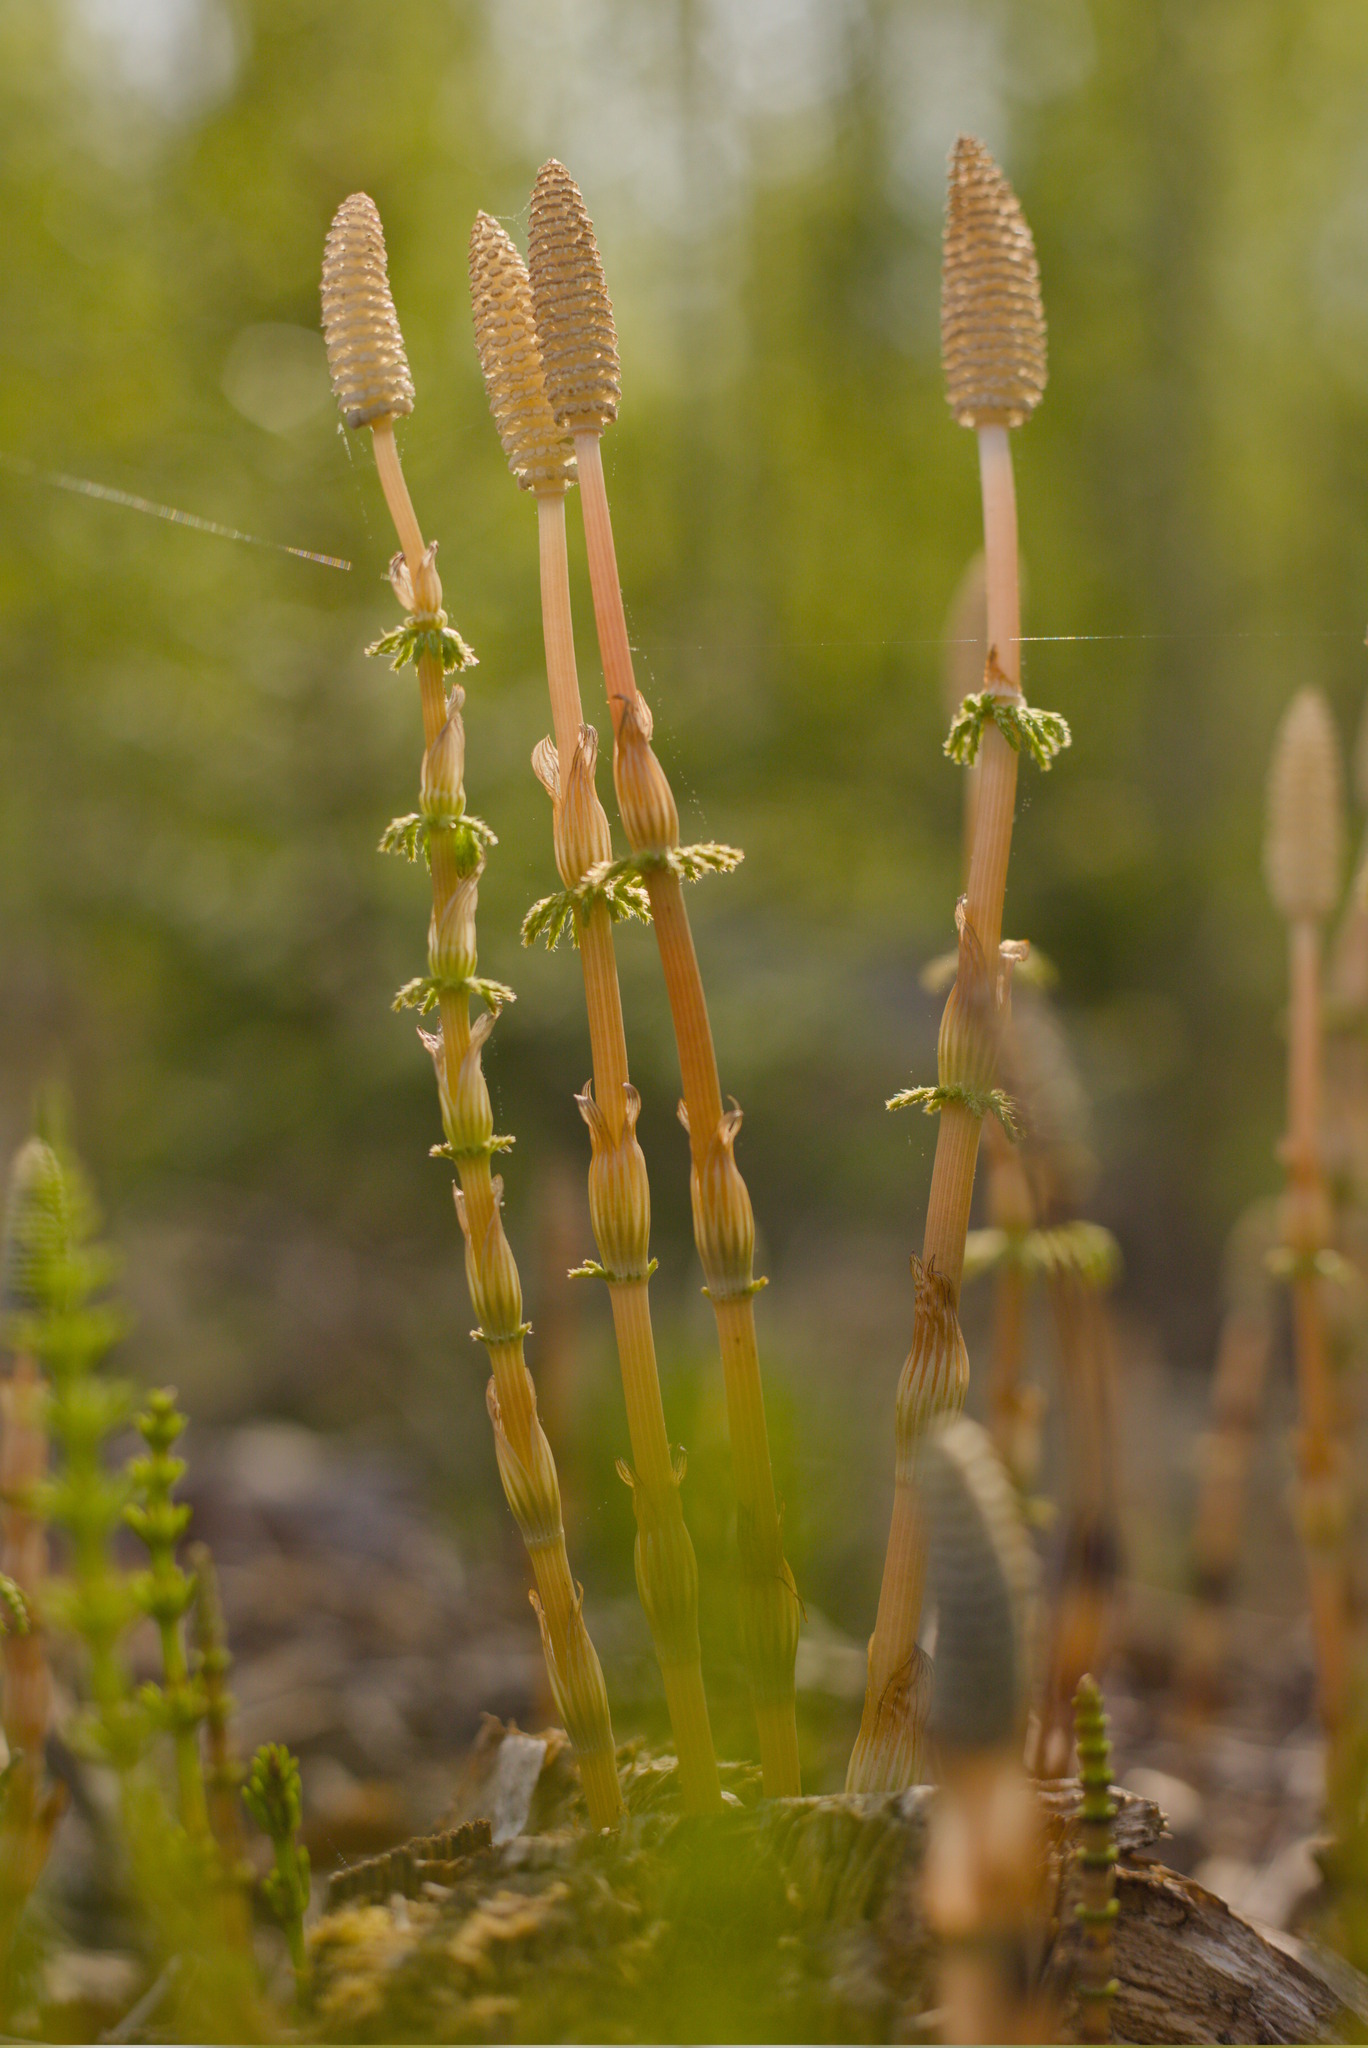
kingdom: Plantae
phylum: Tracheophyta
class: Polypodiopsida
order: Equisetales
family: Equisetaceae
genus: Equisetum
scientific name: Equisetum sylvaticum
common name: Wood horsetail
